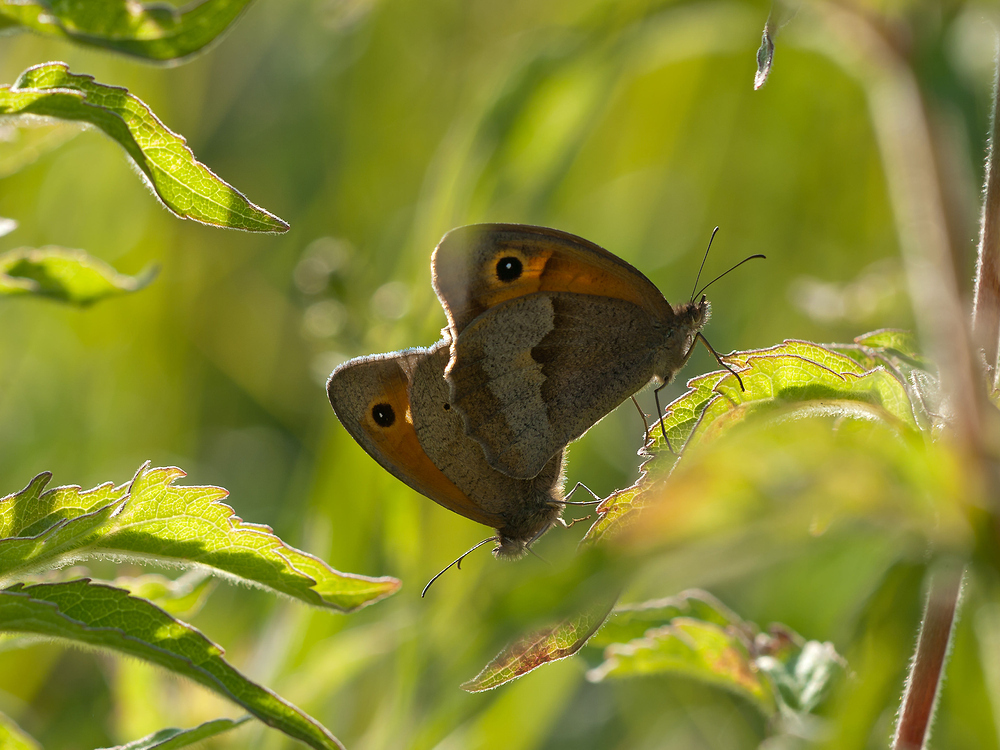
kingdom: Animalia
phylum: Arthropoda
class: Insecta
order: Lepidoptera
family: Nymphalidae
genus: Maniola
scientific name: Maniola jurtina
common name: Meadow brown
